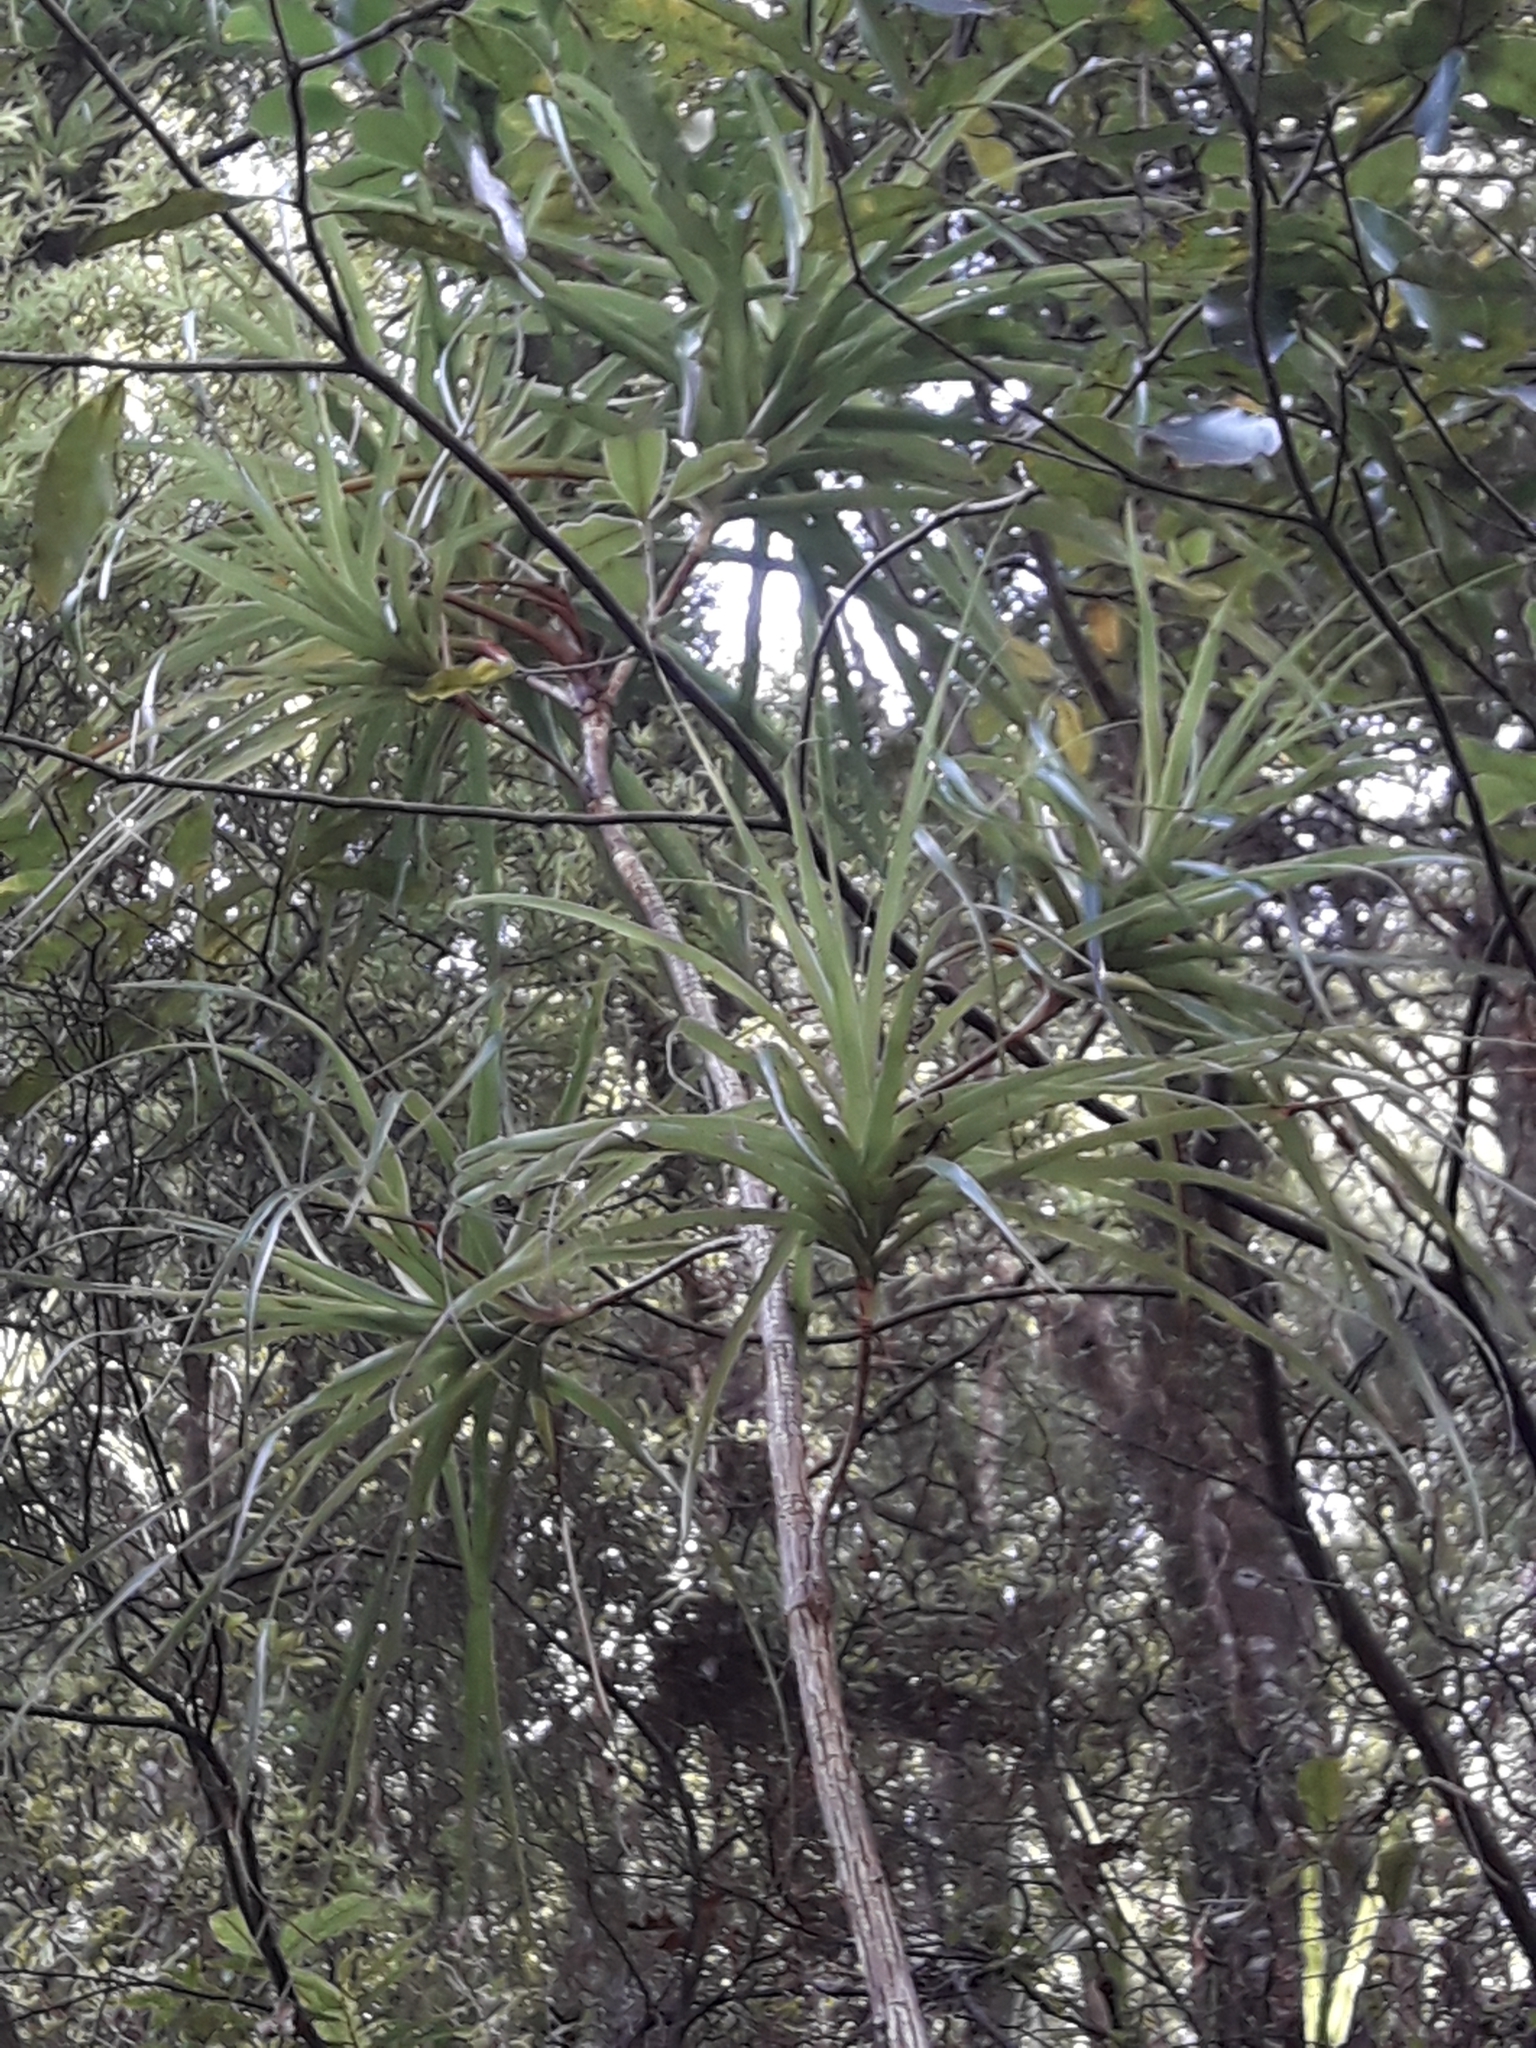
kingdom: Plantae
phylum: Tracheophyta
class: Magnoliopsida
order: Ericales
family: Ericaceae
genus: Dracophyllum
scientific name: Dracophyllum latifolium
